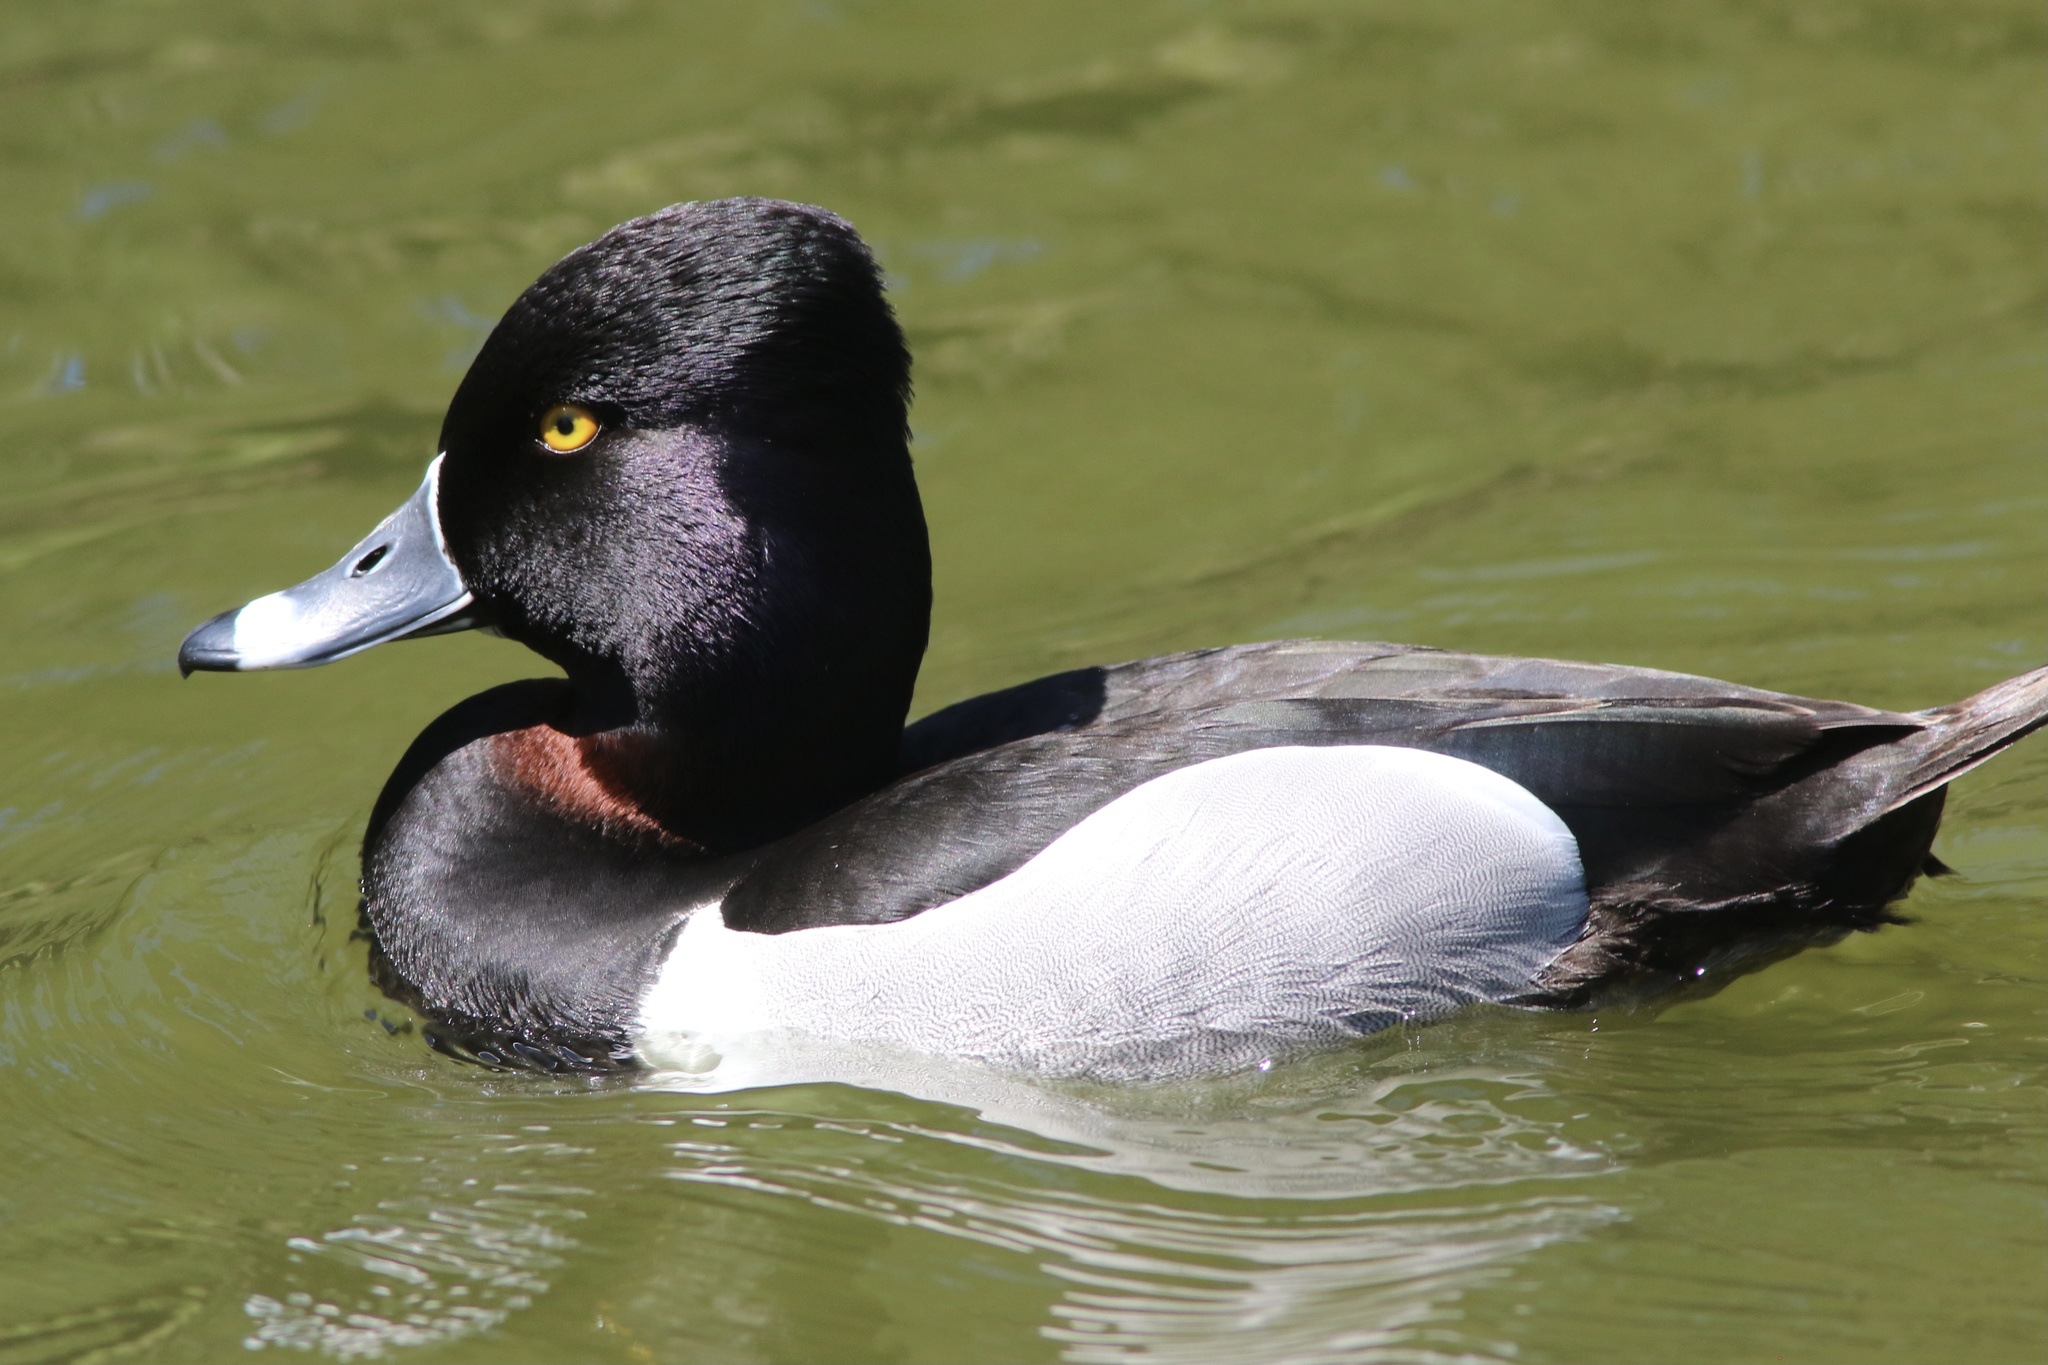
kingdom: Animalia
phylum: Chordata
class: Aves
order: Anseriformes
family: Anatidae
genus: Aythya
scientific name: Aythya collaris
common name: Ring-necked duck
